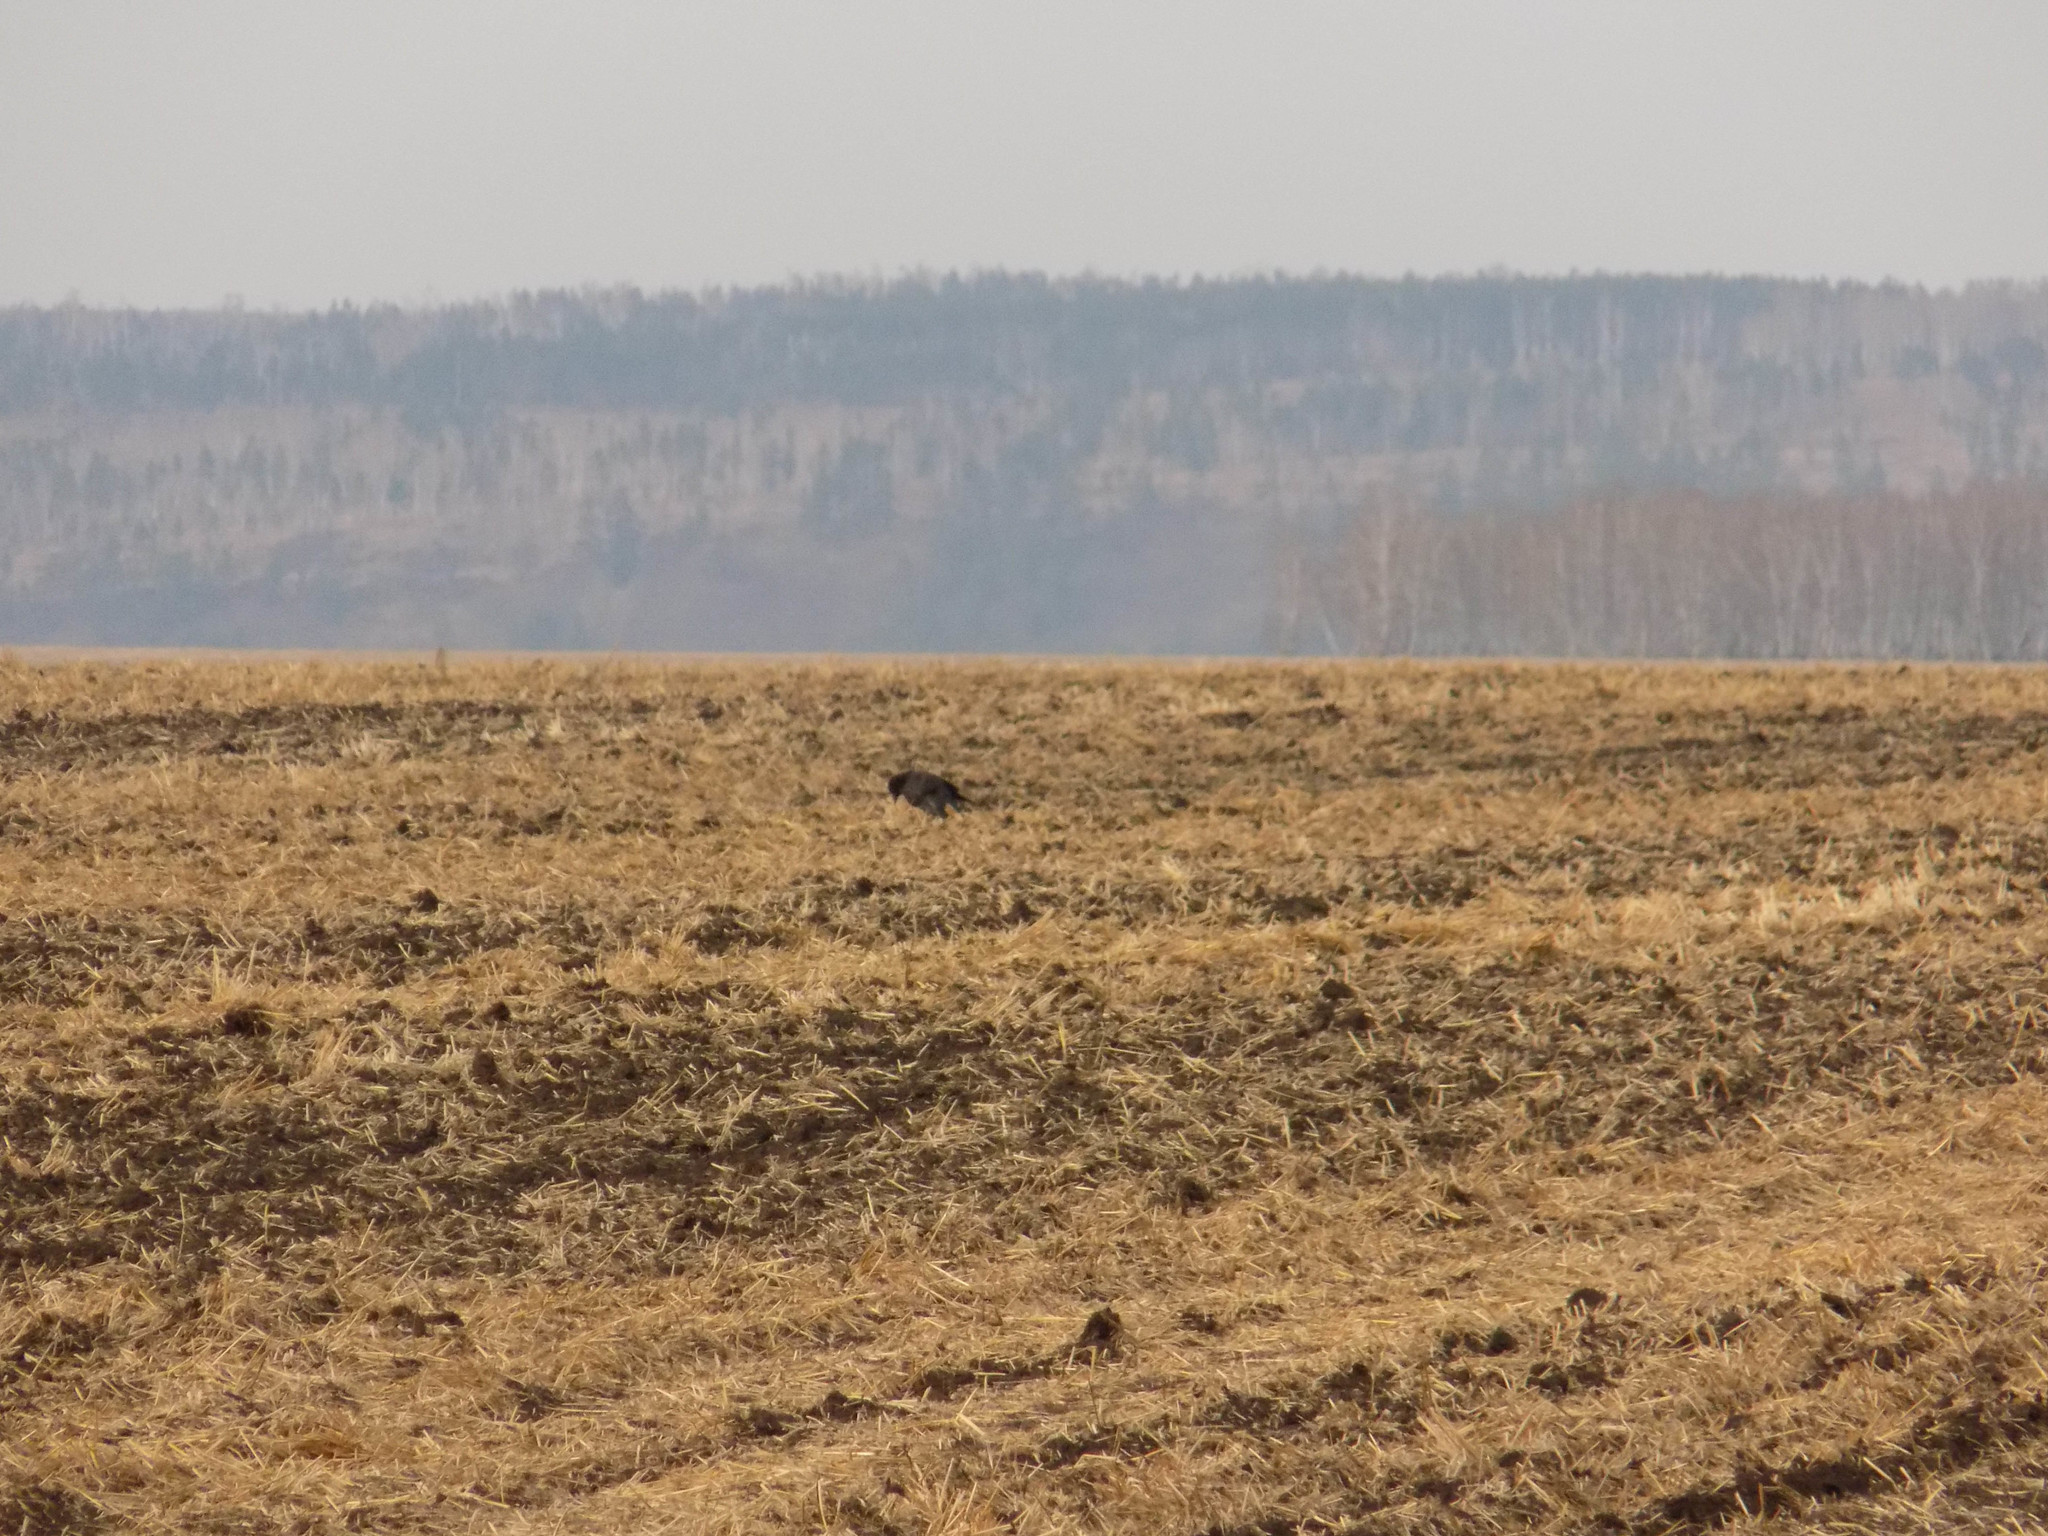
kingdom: Animalia
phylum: Chordata
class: Aves
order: Passeriformes
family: Corvidae
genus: Corvus
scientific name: Corvus
